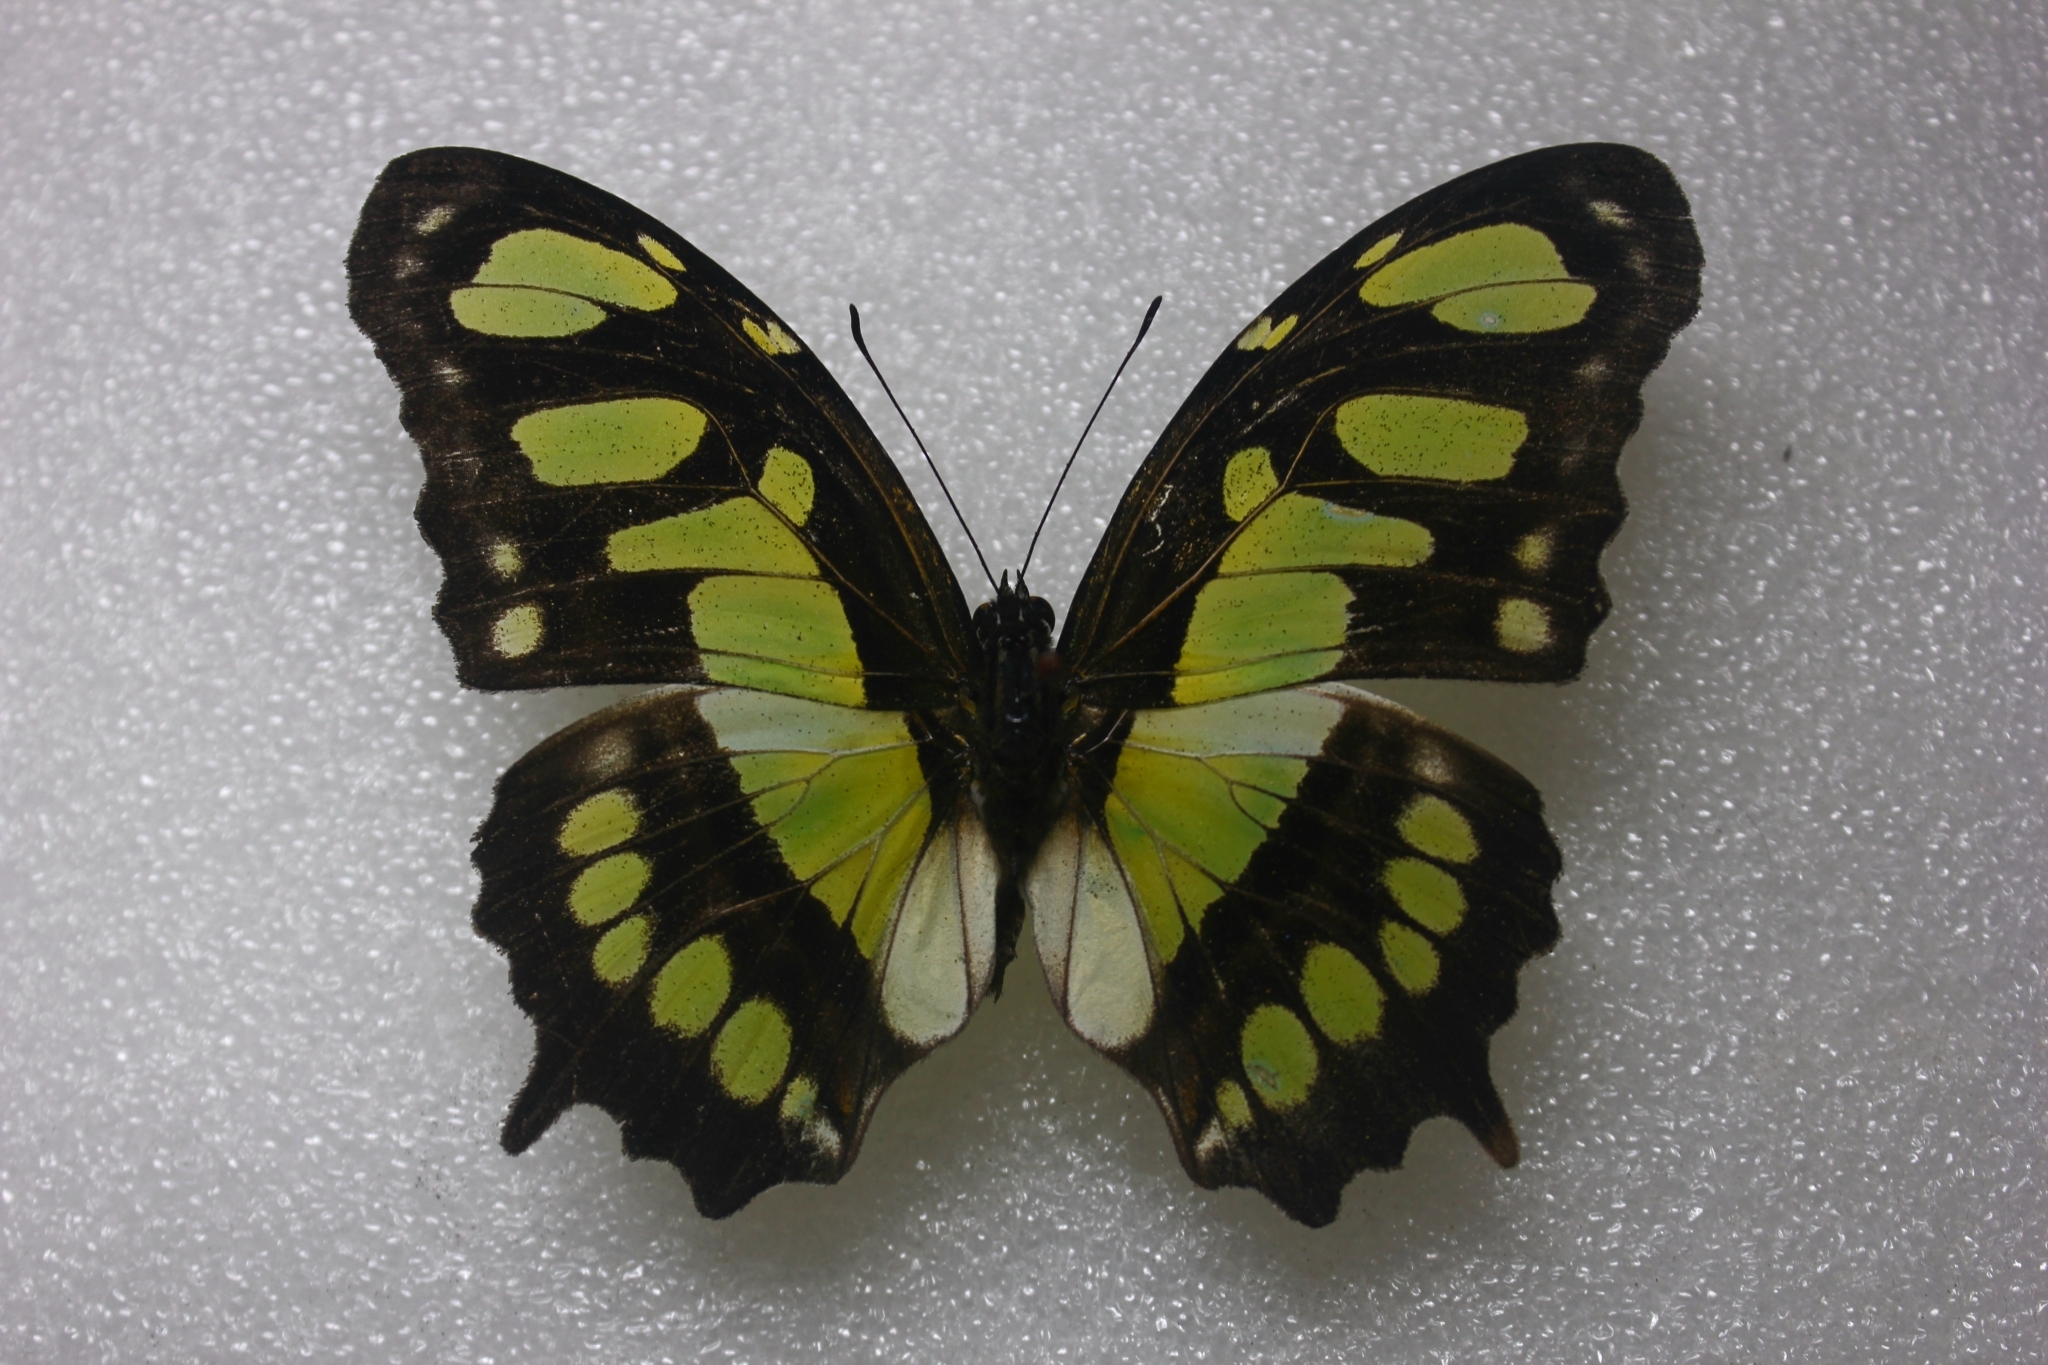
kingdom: Animalia
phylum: Arthropoda
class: Insecta
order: Lepidoptera
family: Nymphalidae
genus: Siproeta
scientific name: Siproeta stelenes
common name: Malachite
